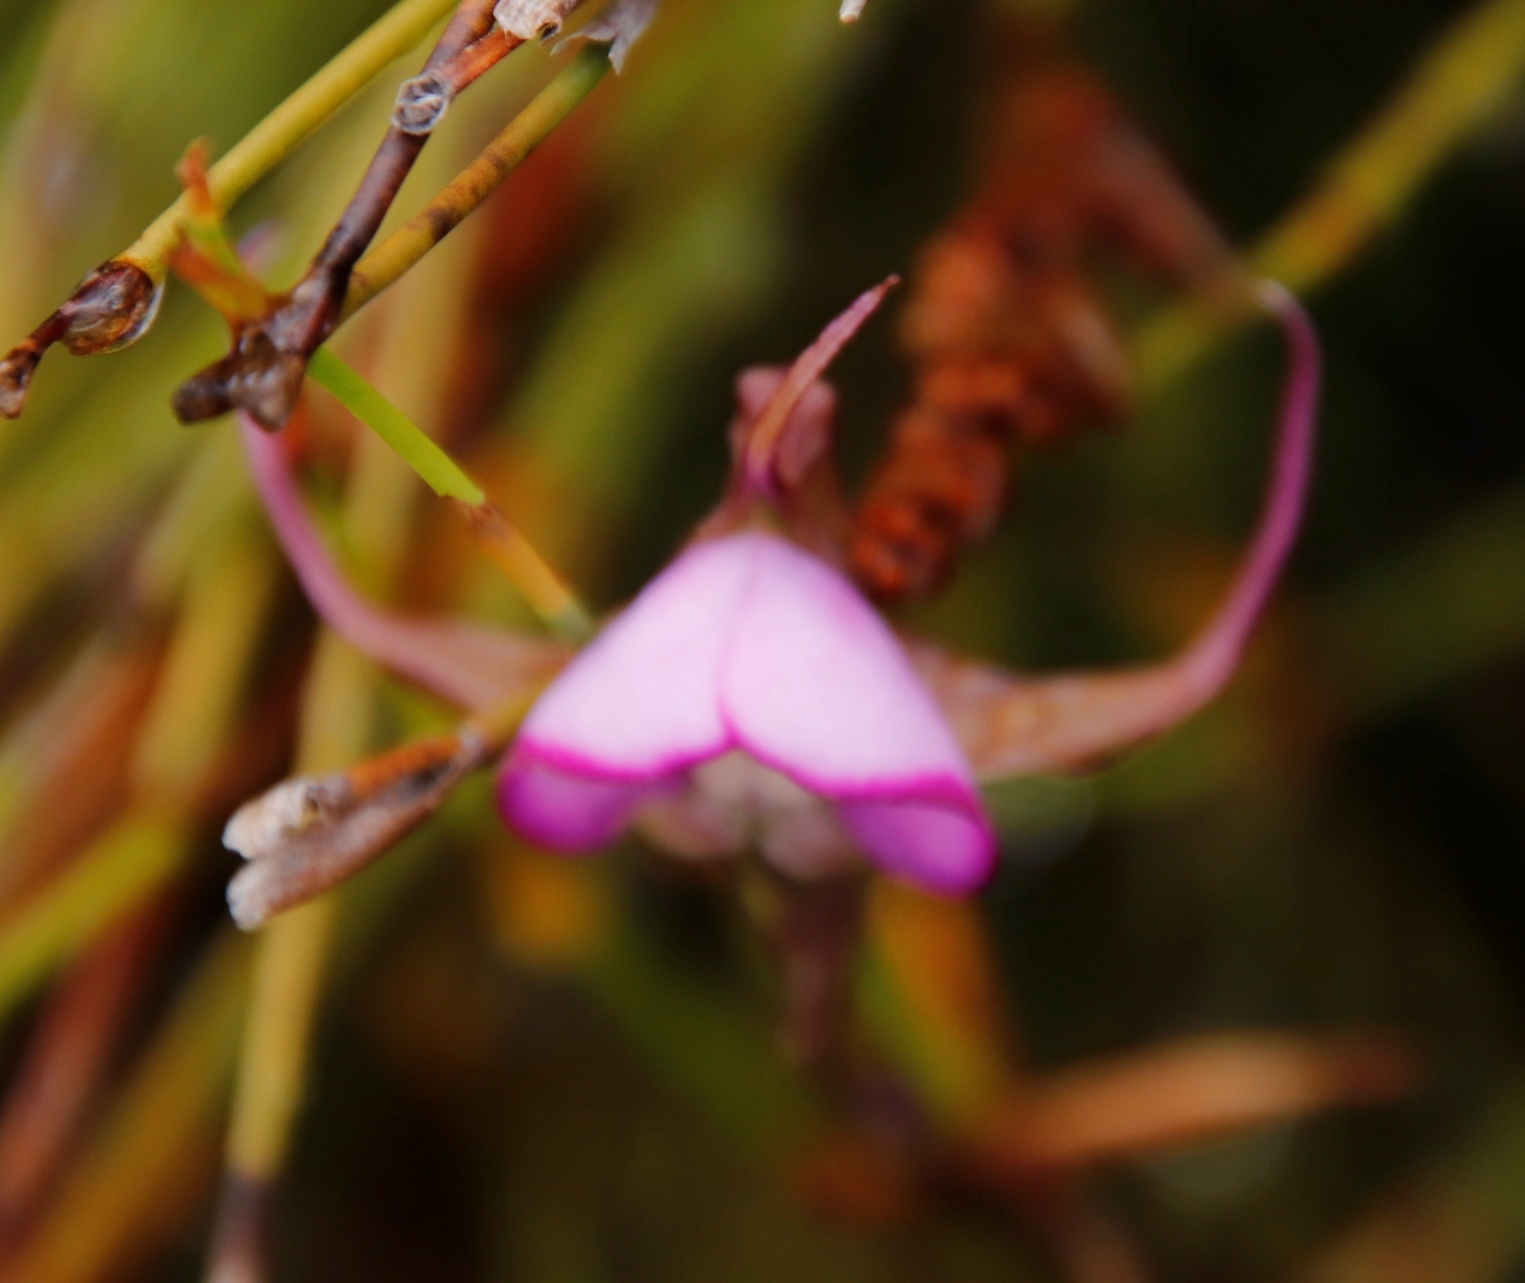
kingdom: Plantae
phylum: Tracheophyta
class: Liliopsida
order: Asparagales
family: Orchidaceae
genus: Disperis
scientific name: Disperis capensis
